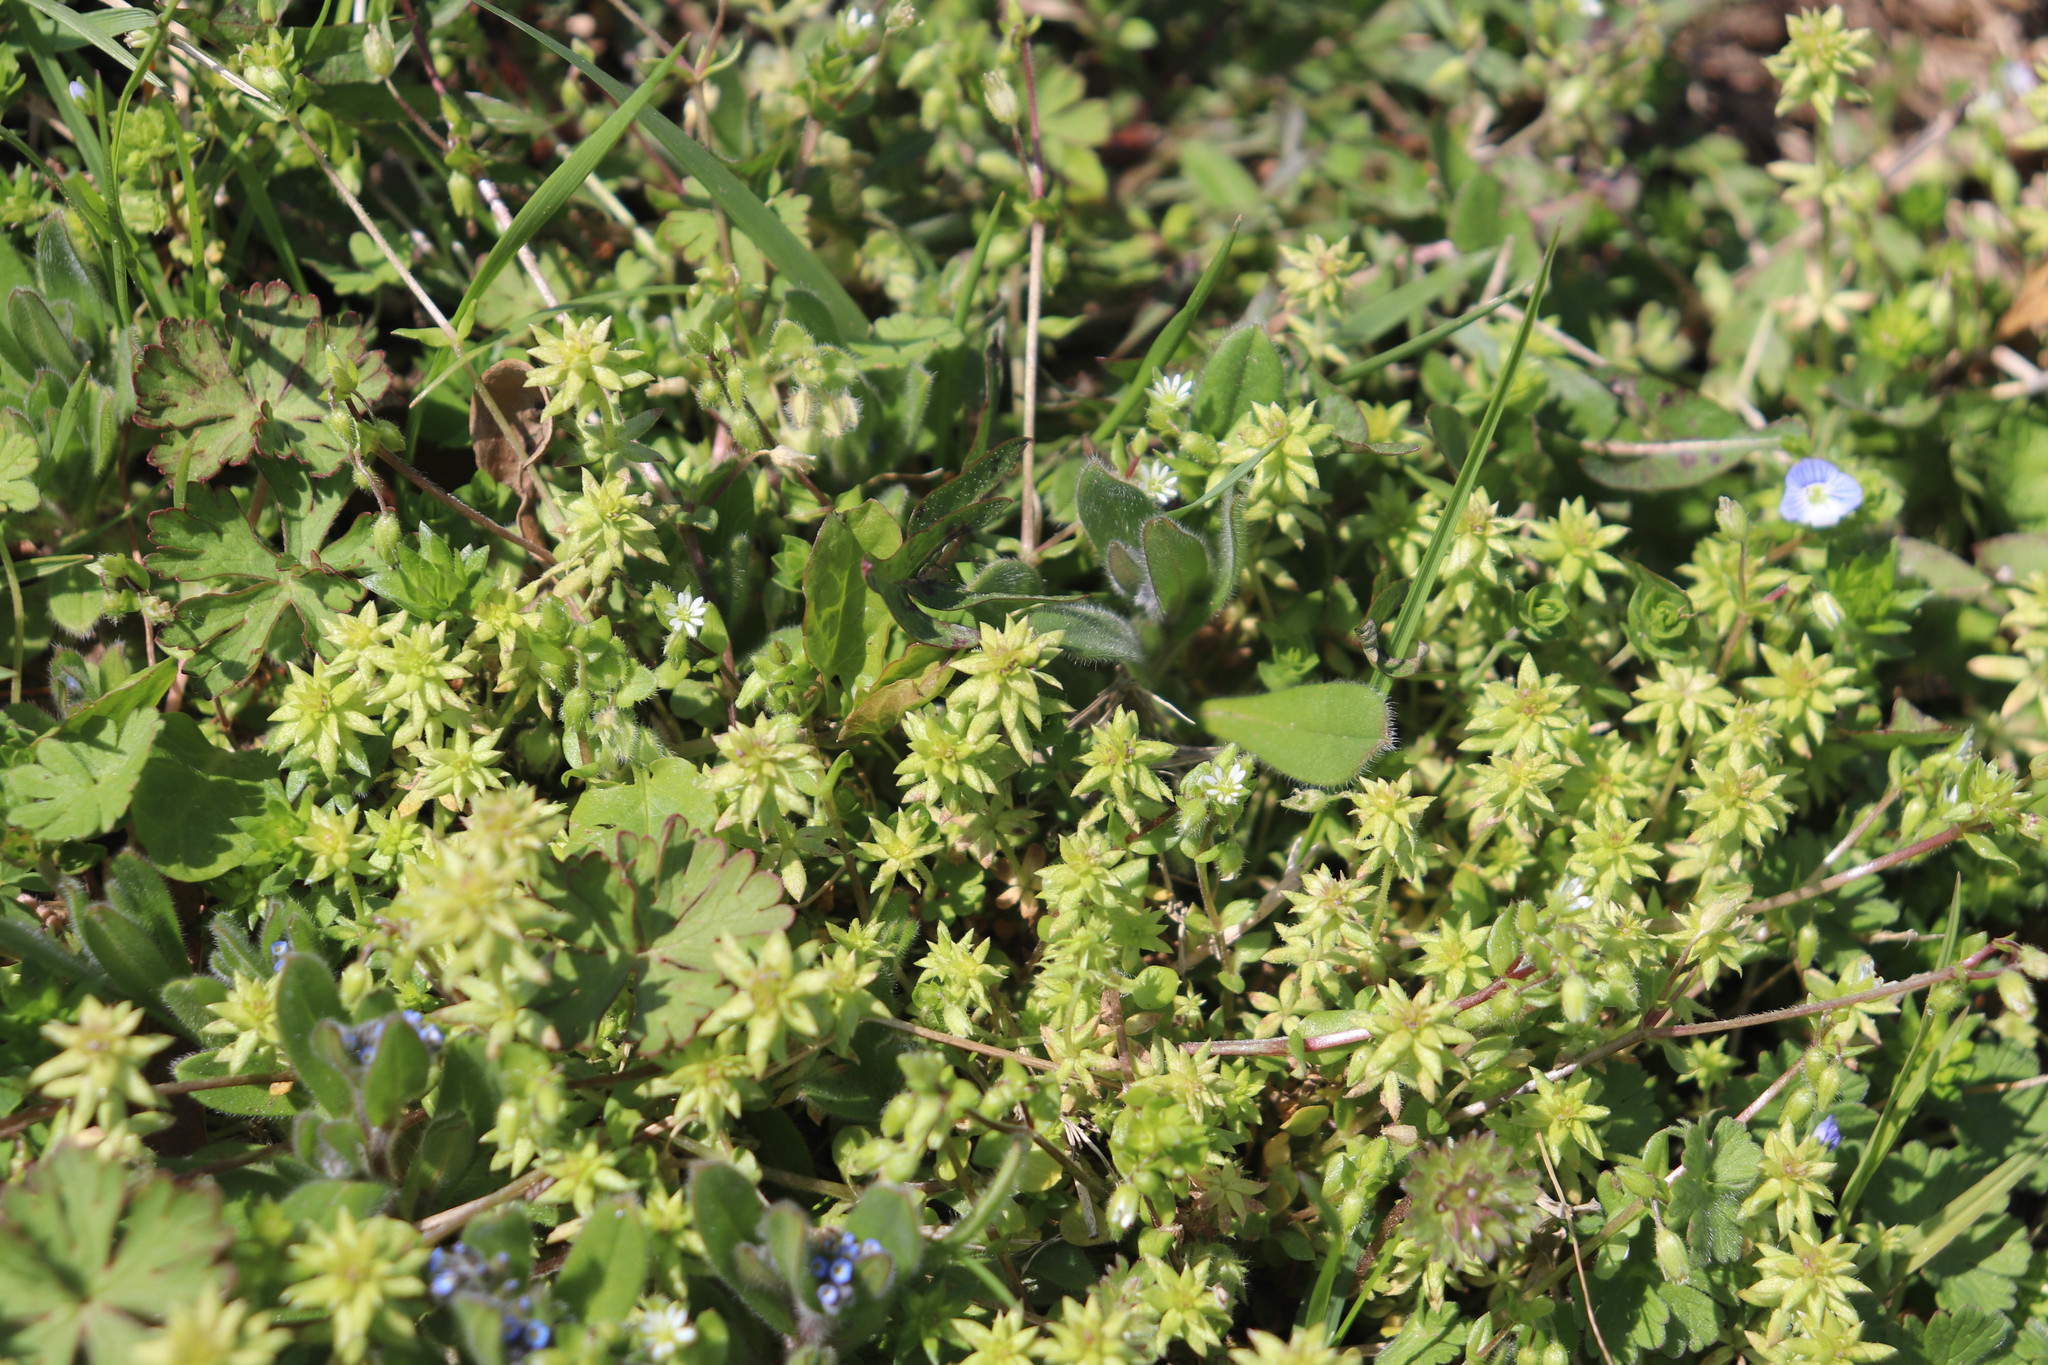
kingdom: Plantae
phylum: Tracheophyta
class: Magnoliopsida
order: Gentianales
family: Rubiaceae
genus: Sherardia
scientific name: Sherardia arvensis
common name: Field madder
